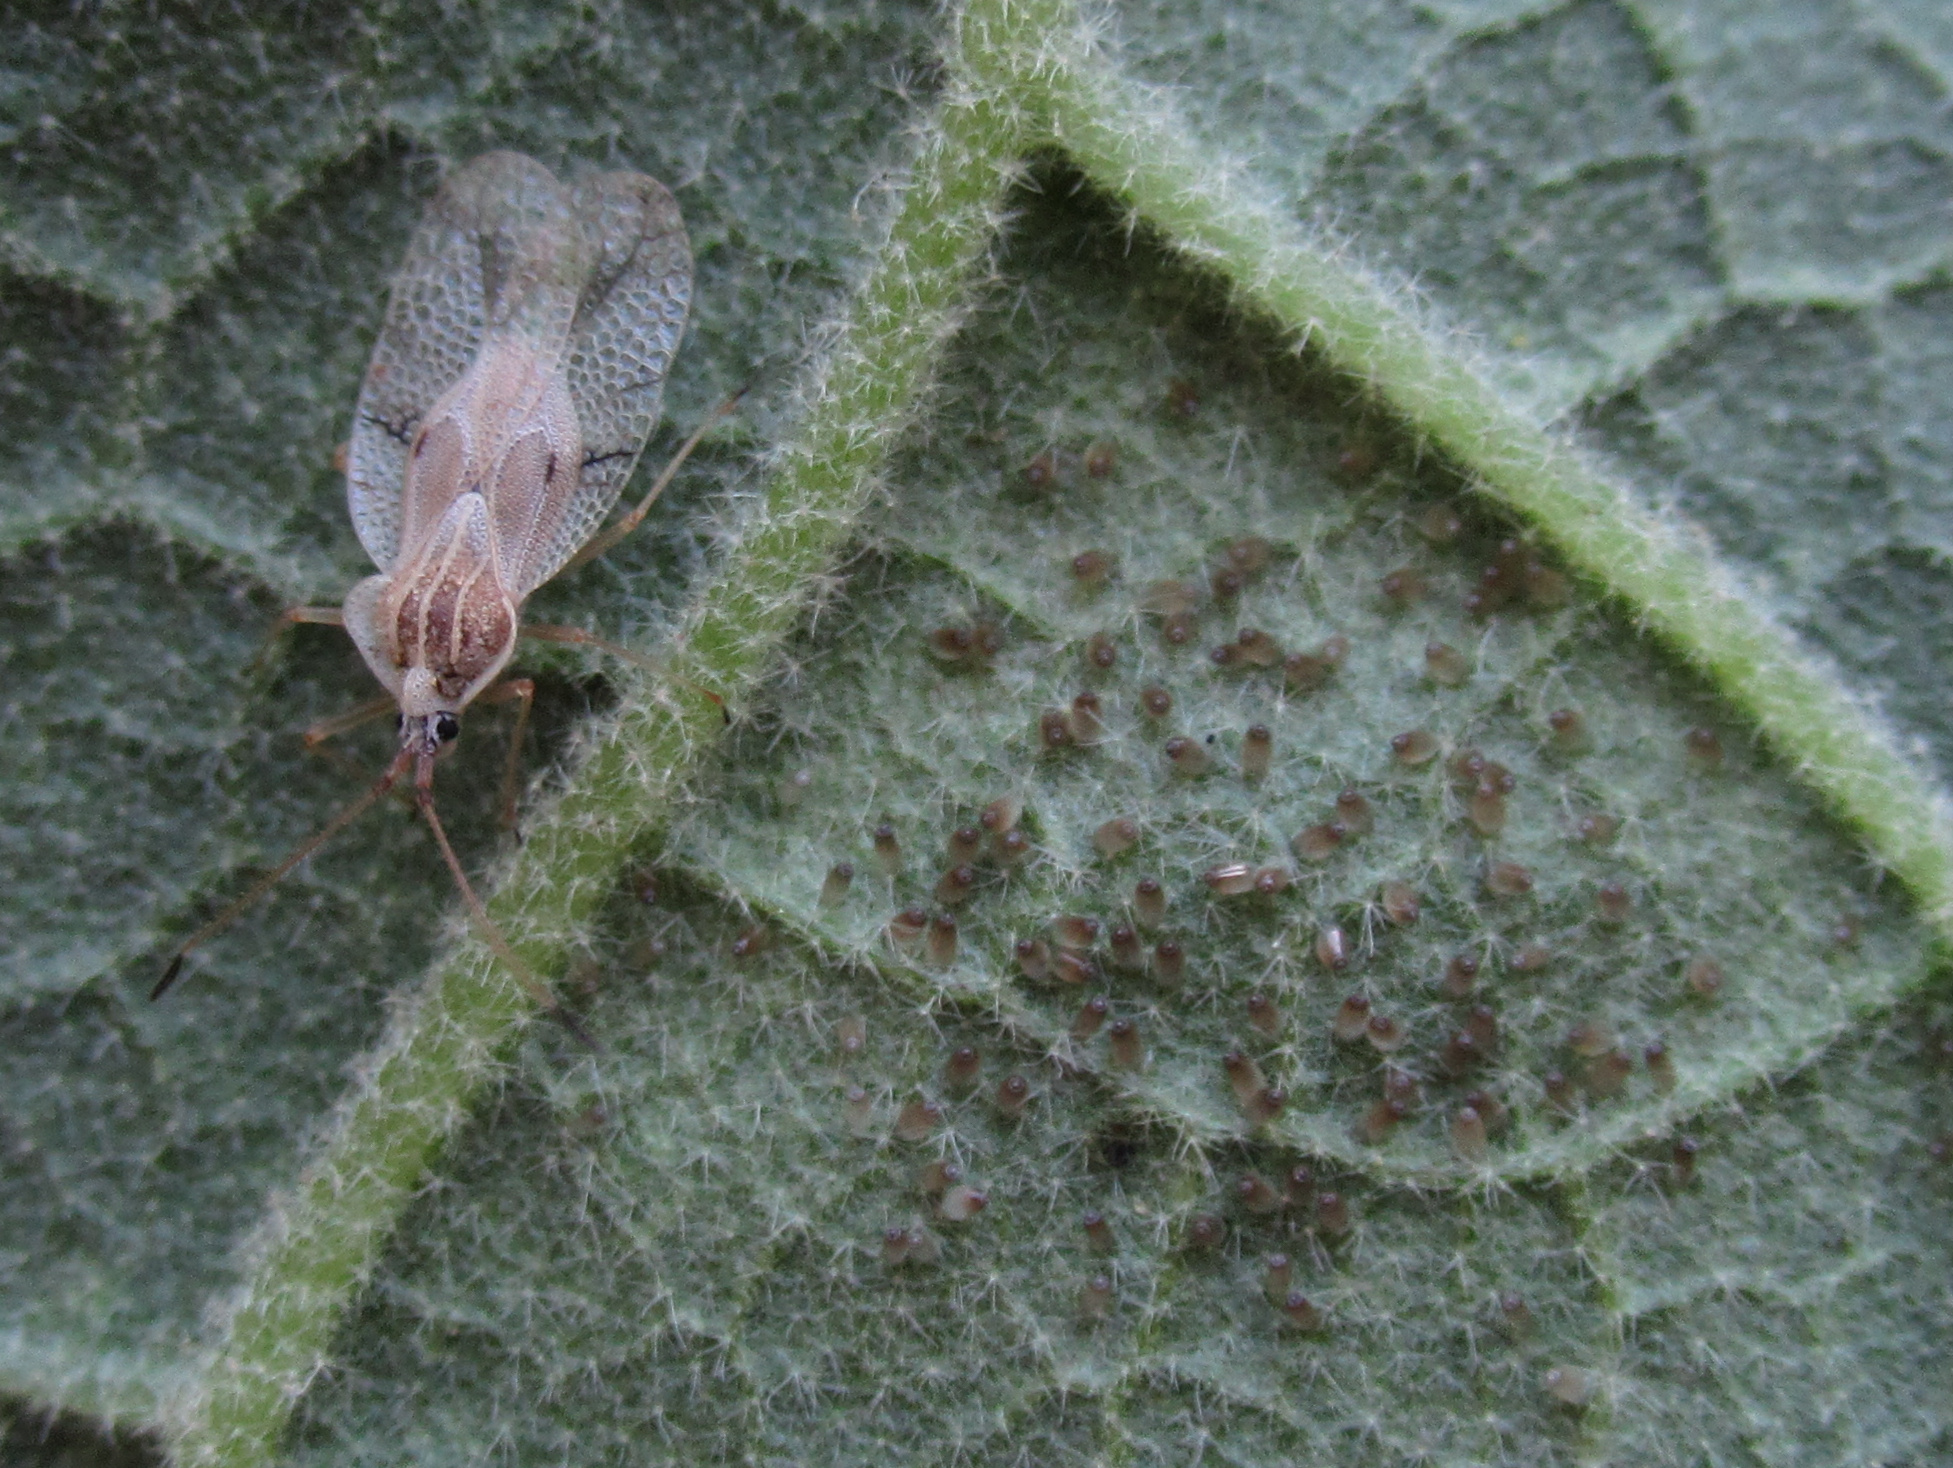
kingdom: Plantae
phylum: Tracheophyta
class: Magnoliopsida
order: Solanales
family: Solanaceae
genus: Solanum
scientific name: Solanum mauritianum
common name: Earleaf nightshade
